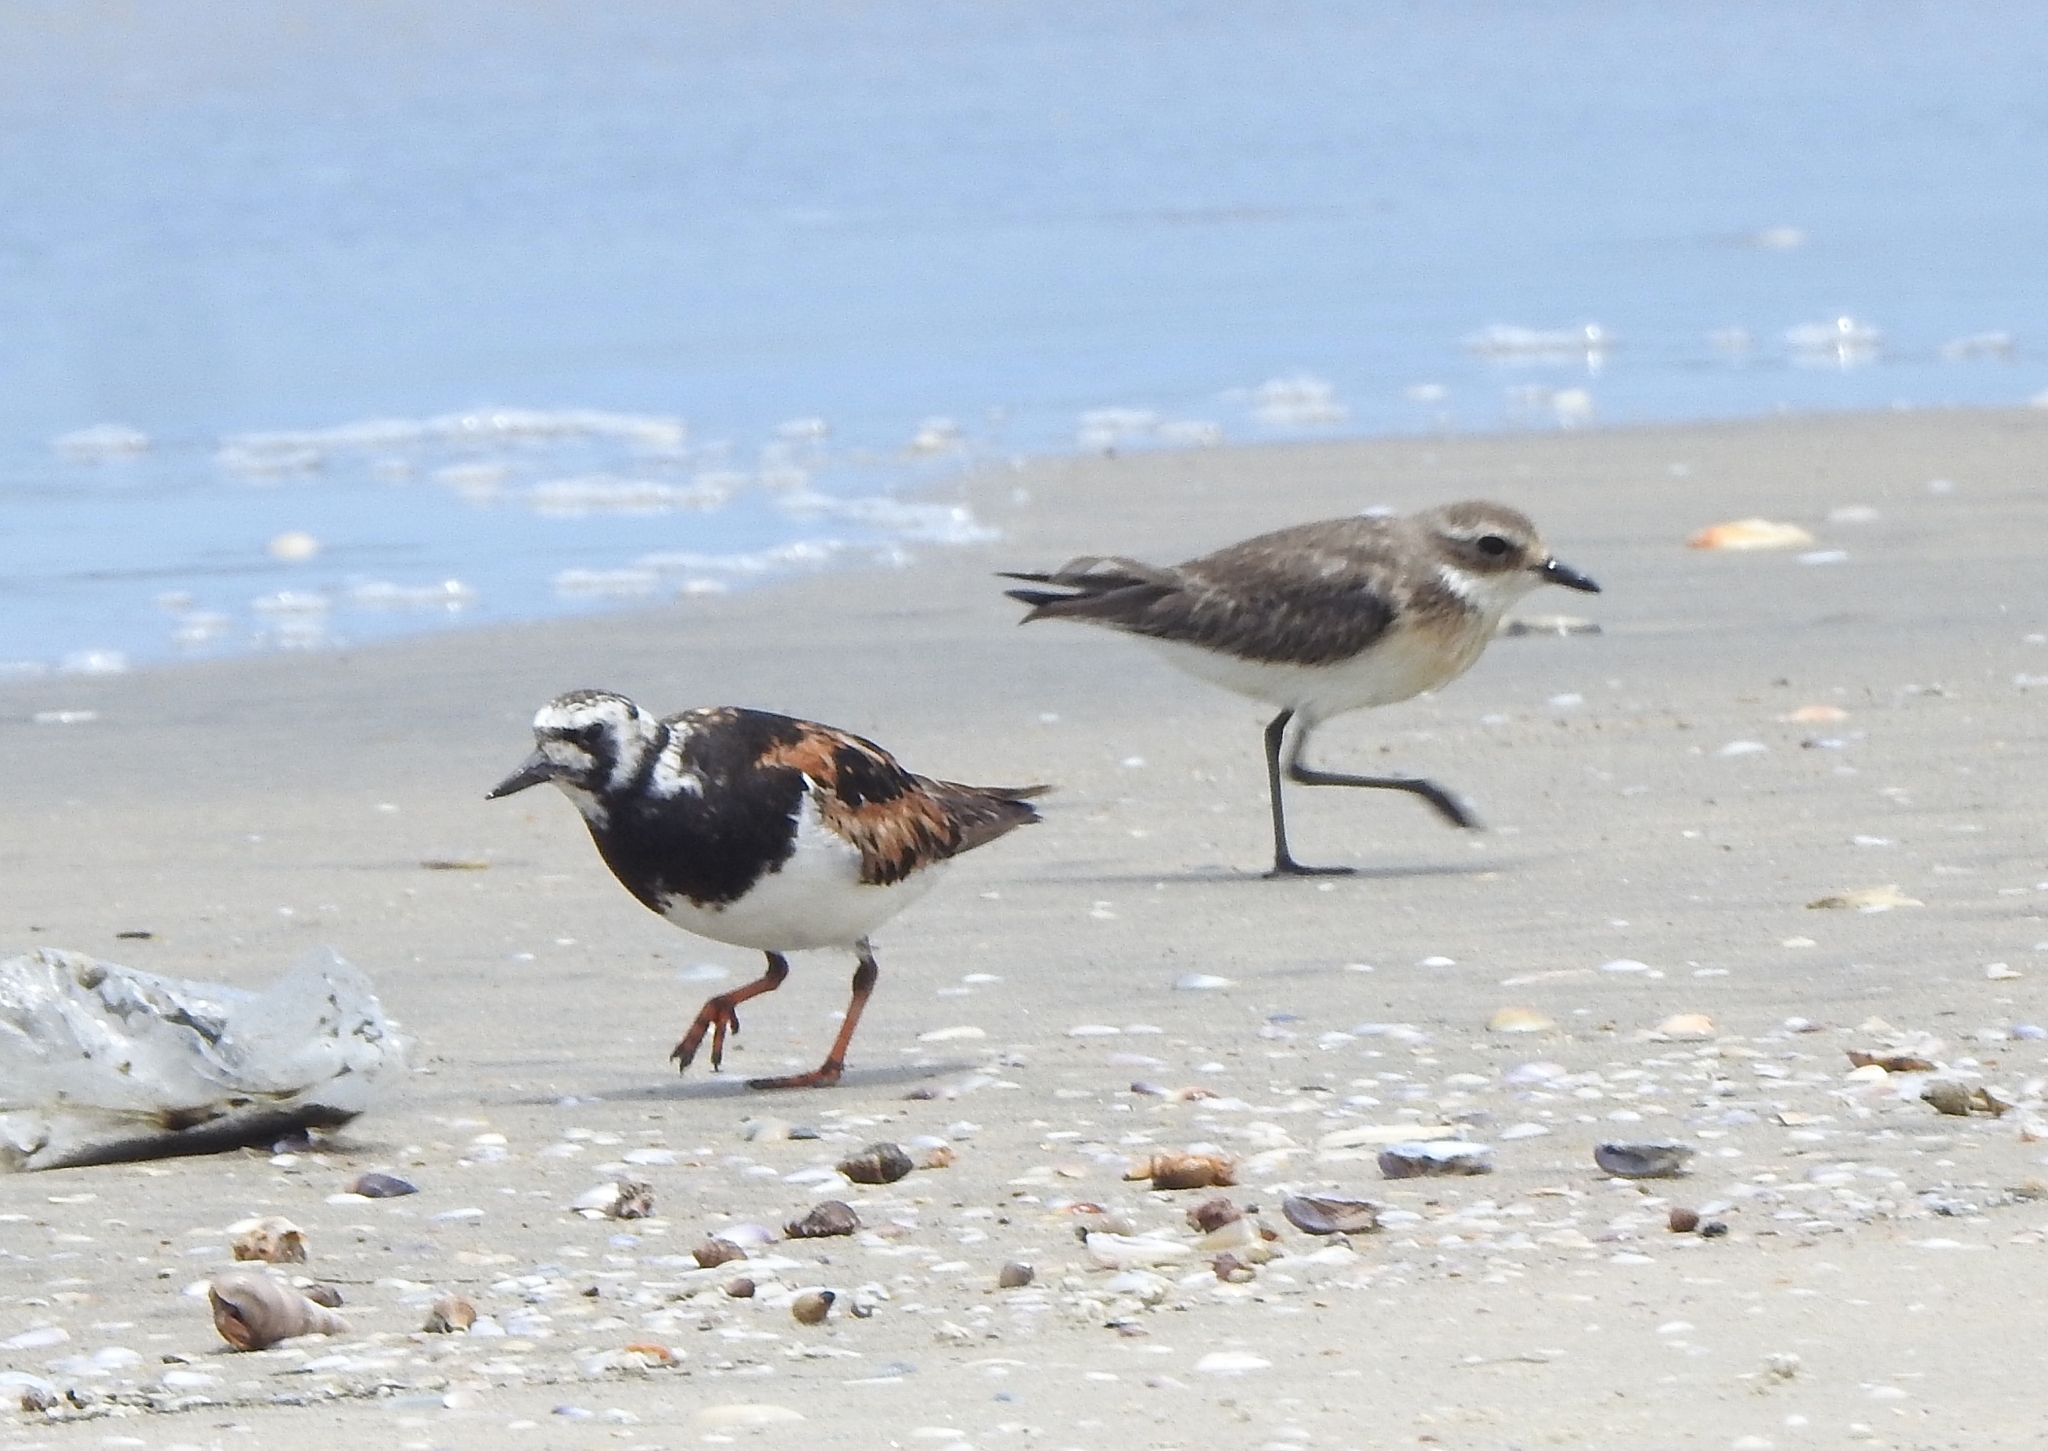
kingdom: Animalia
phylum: Chordata
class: Aves
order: Charadriiformes
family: Scolopacidae
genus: Arenaria
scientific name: Arenaria interpres
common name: Ruddy turnstone
